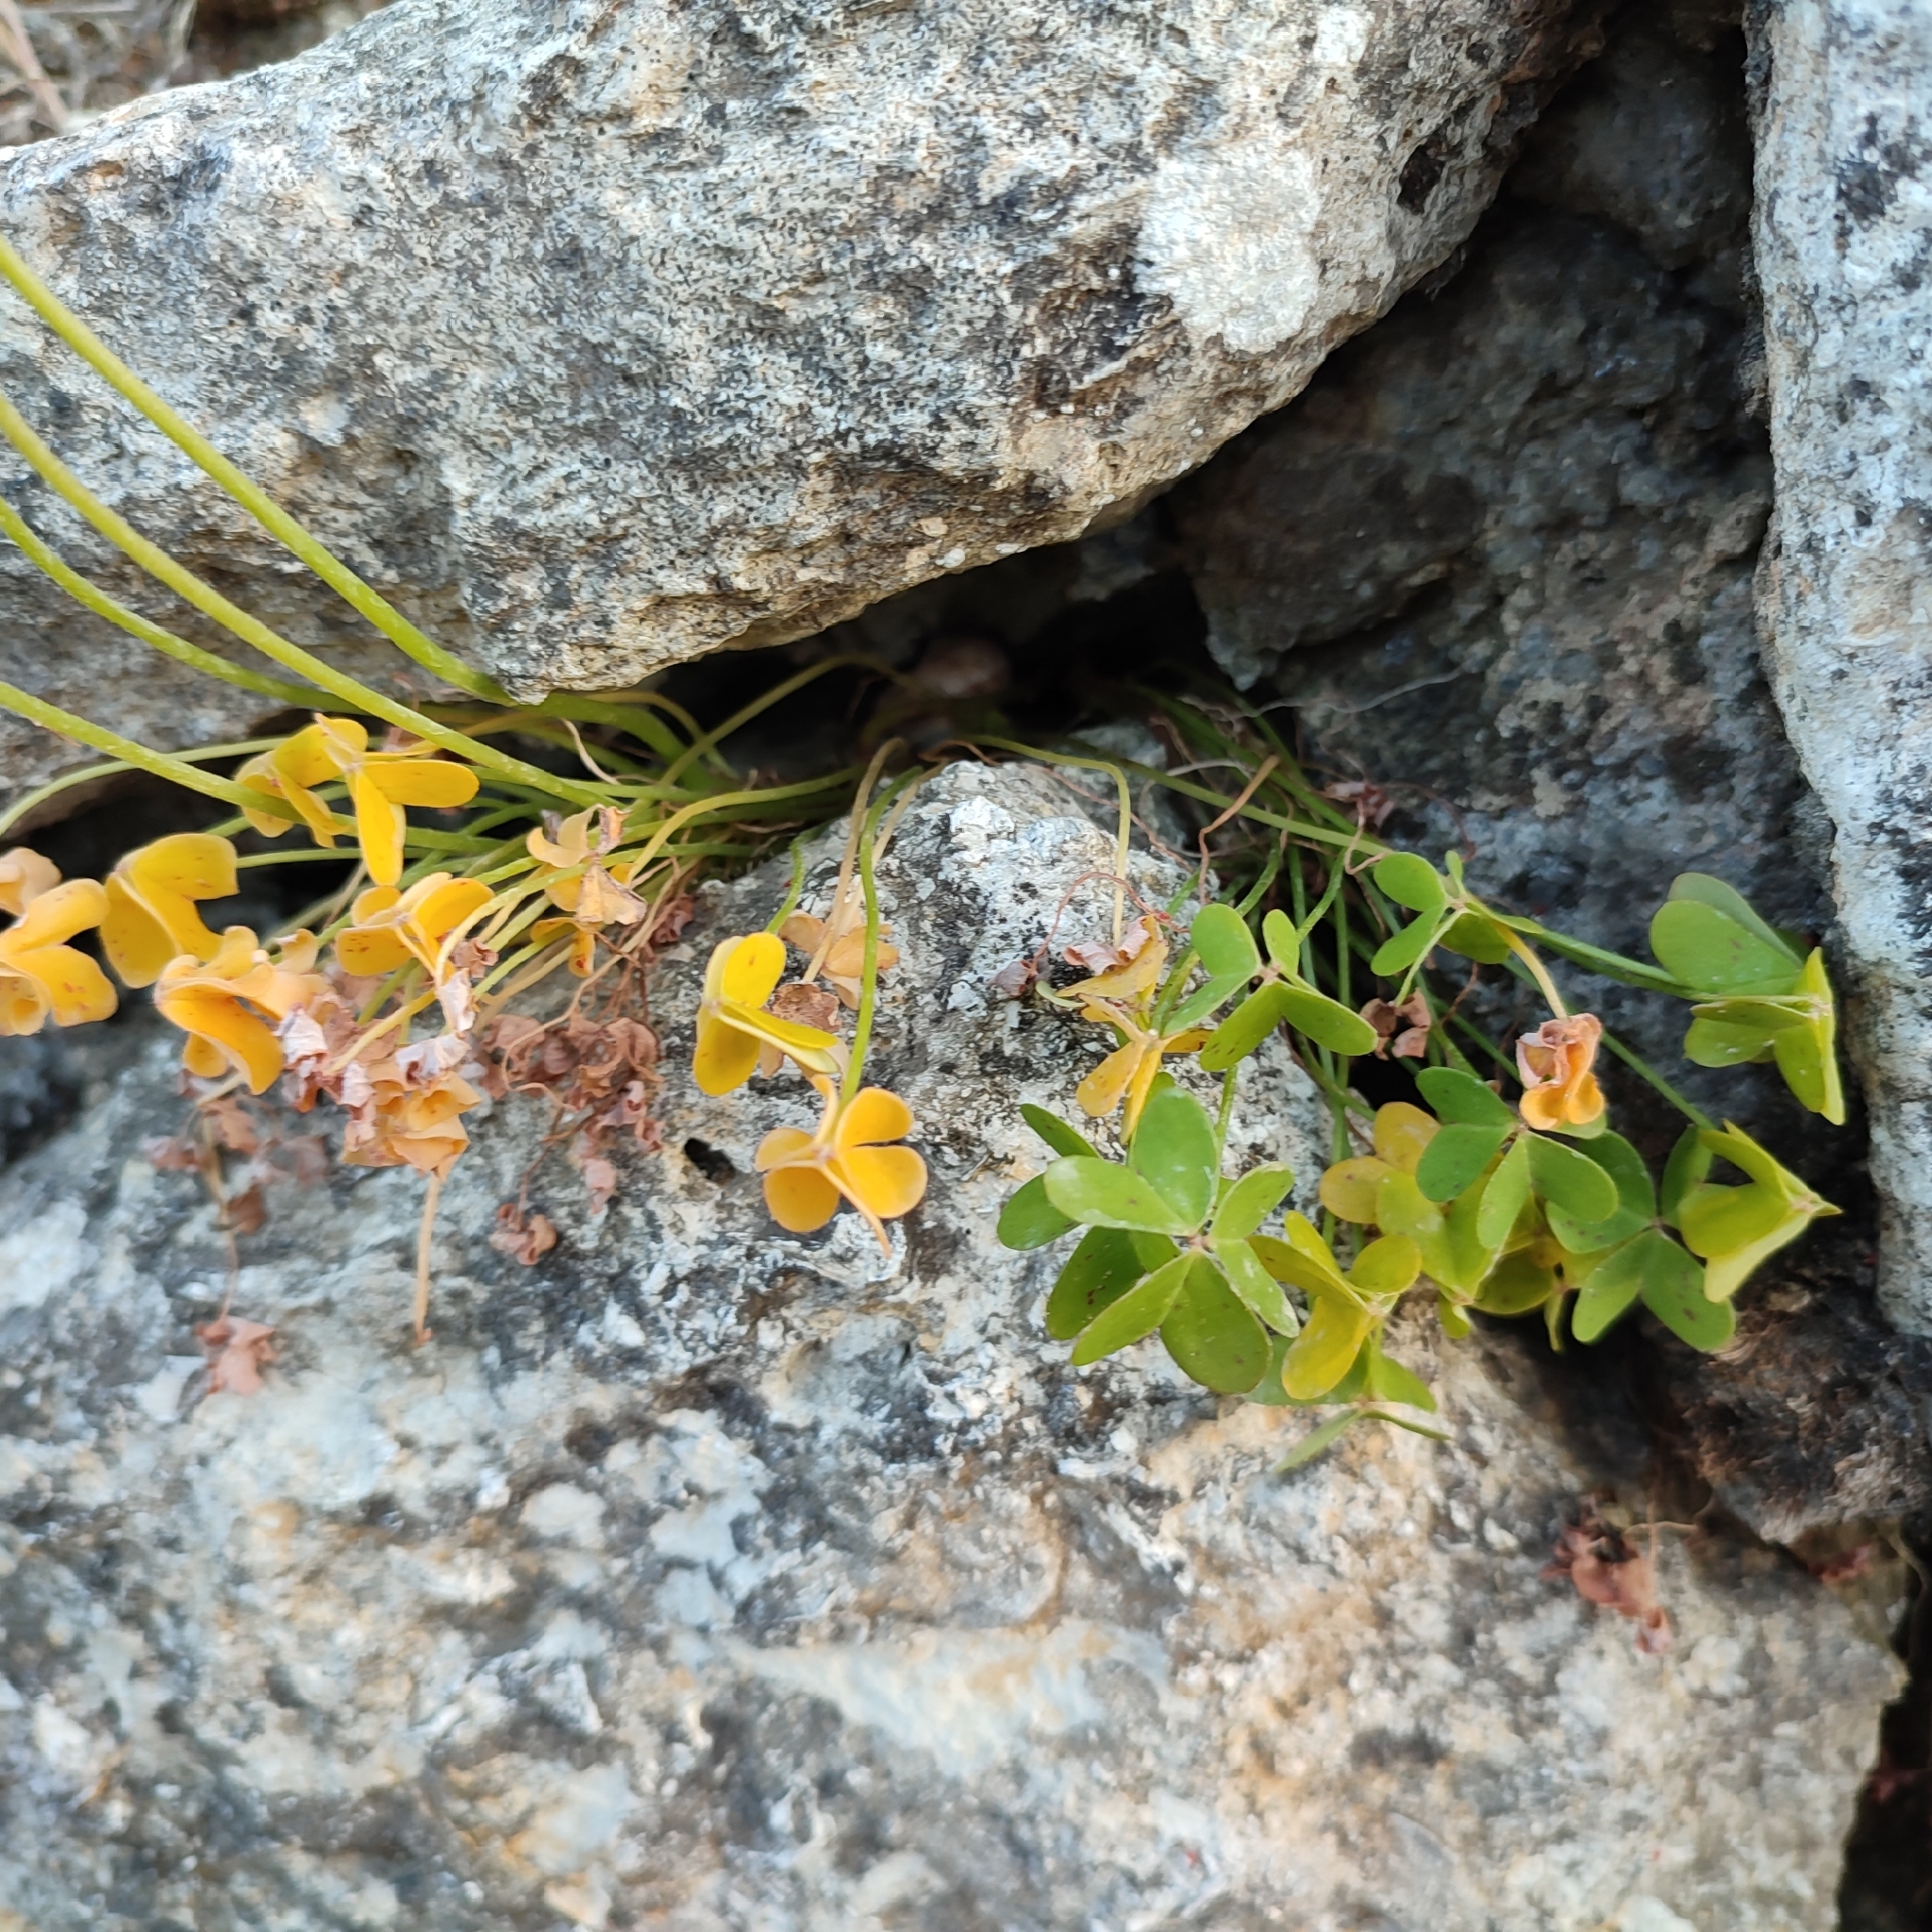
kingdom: Plantae
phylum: Tracheophyta
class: Magnoliopsida
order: Oxalidales
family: Oxalidaceae
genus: Oxalis
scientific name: Oxalis pes-caprae
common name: Bermuda-buttercup
